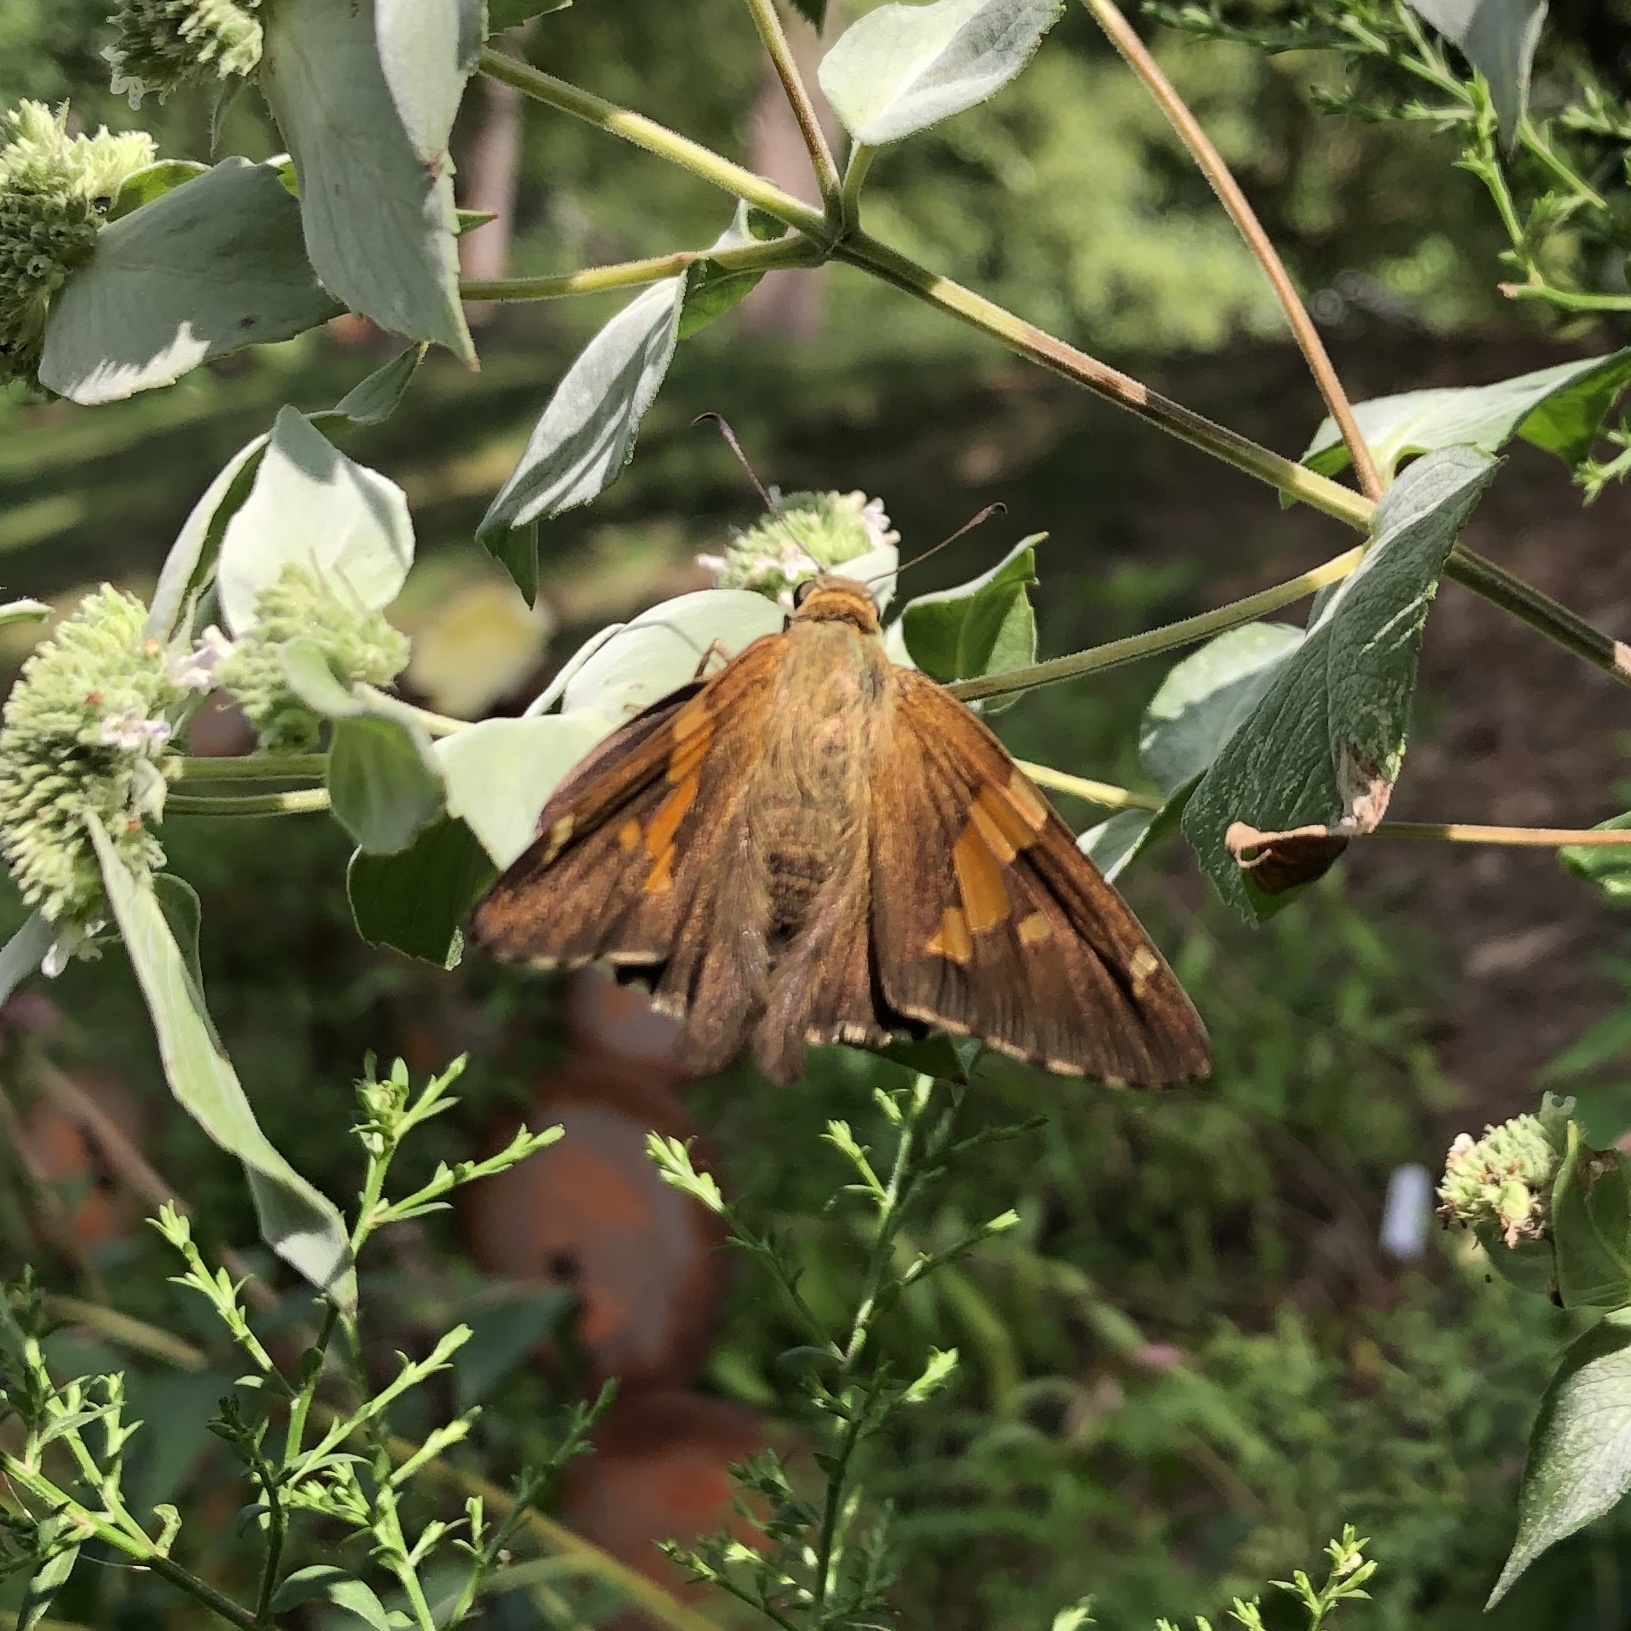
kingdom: Animalia
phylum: Arthropoda
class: Insecta
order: Lepidoptera
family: Hesperiidae
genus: Epargyreus
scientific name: Epargyreus clarus
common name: Silver-spotted skipper
